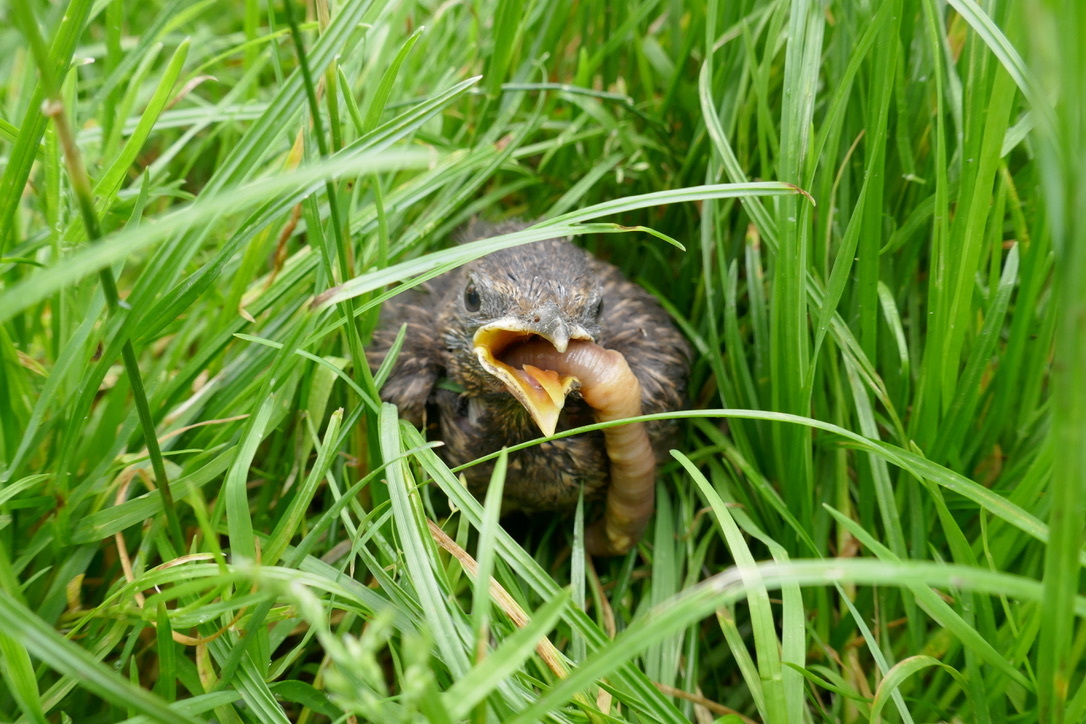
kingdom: Animalia
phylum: Chordata
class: Aves
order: Passeriformes
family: Turdidae
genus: Turdus
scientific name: Turdus merula
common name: Common blackbird
